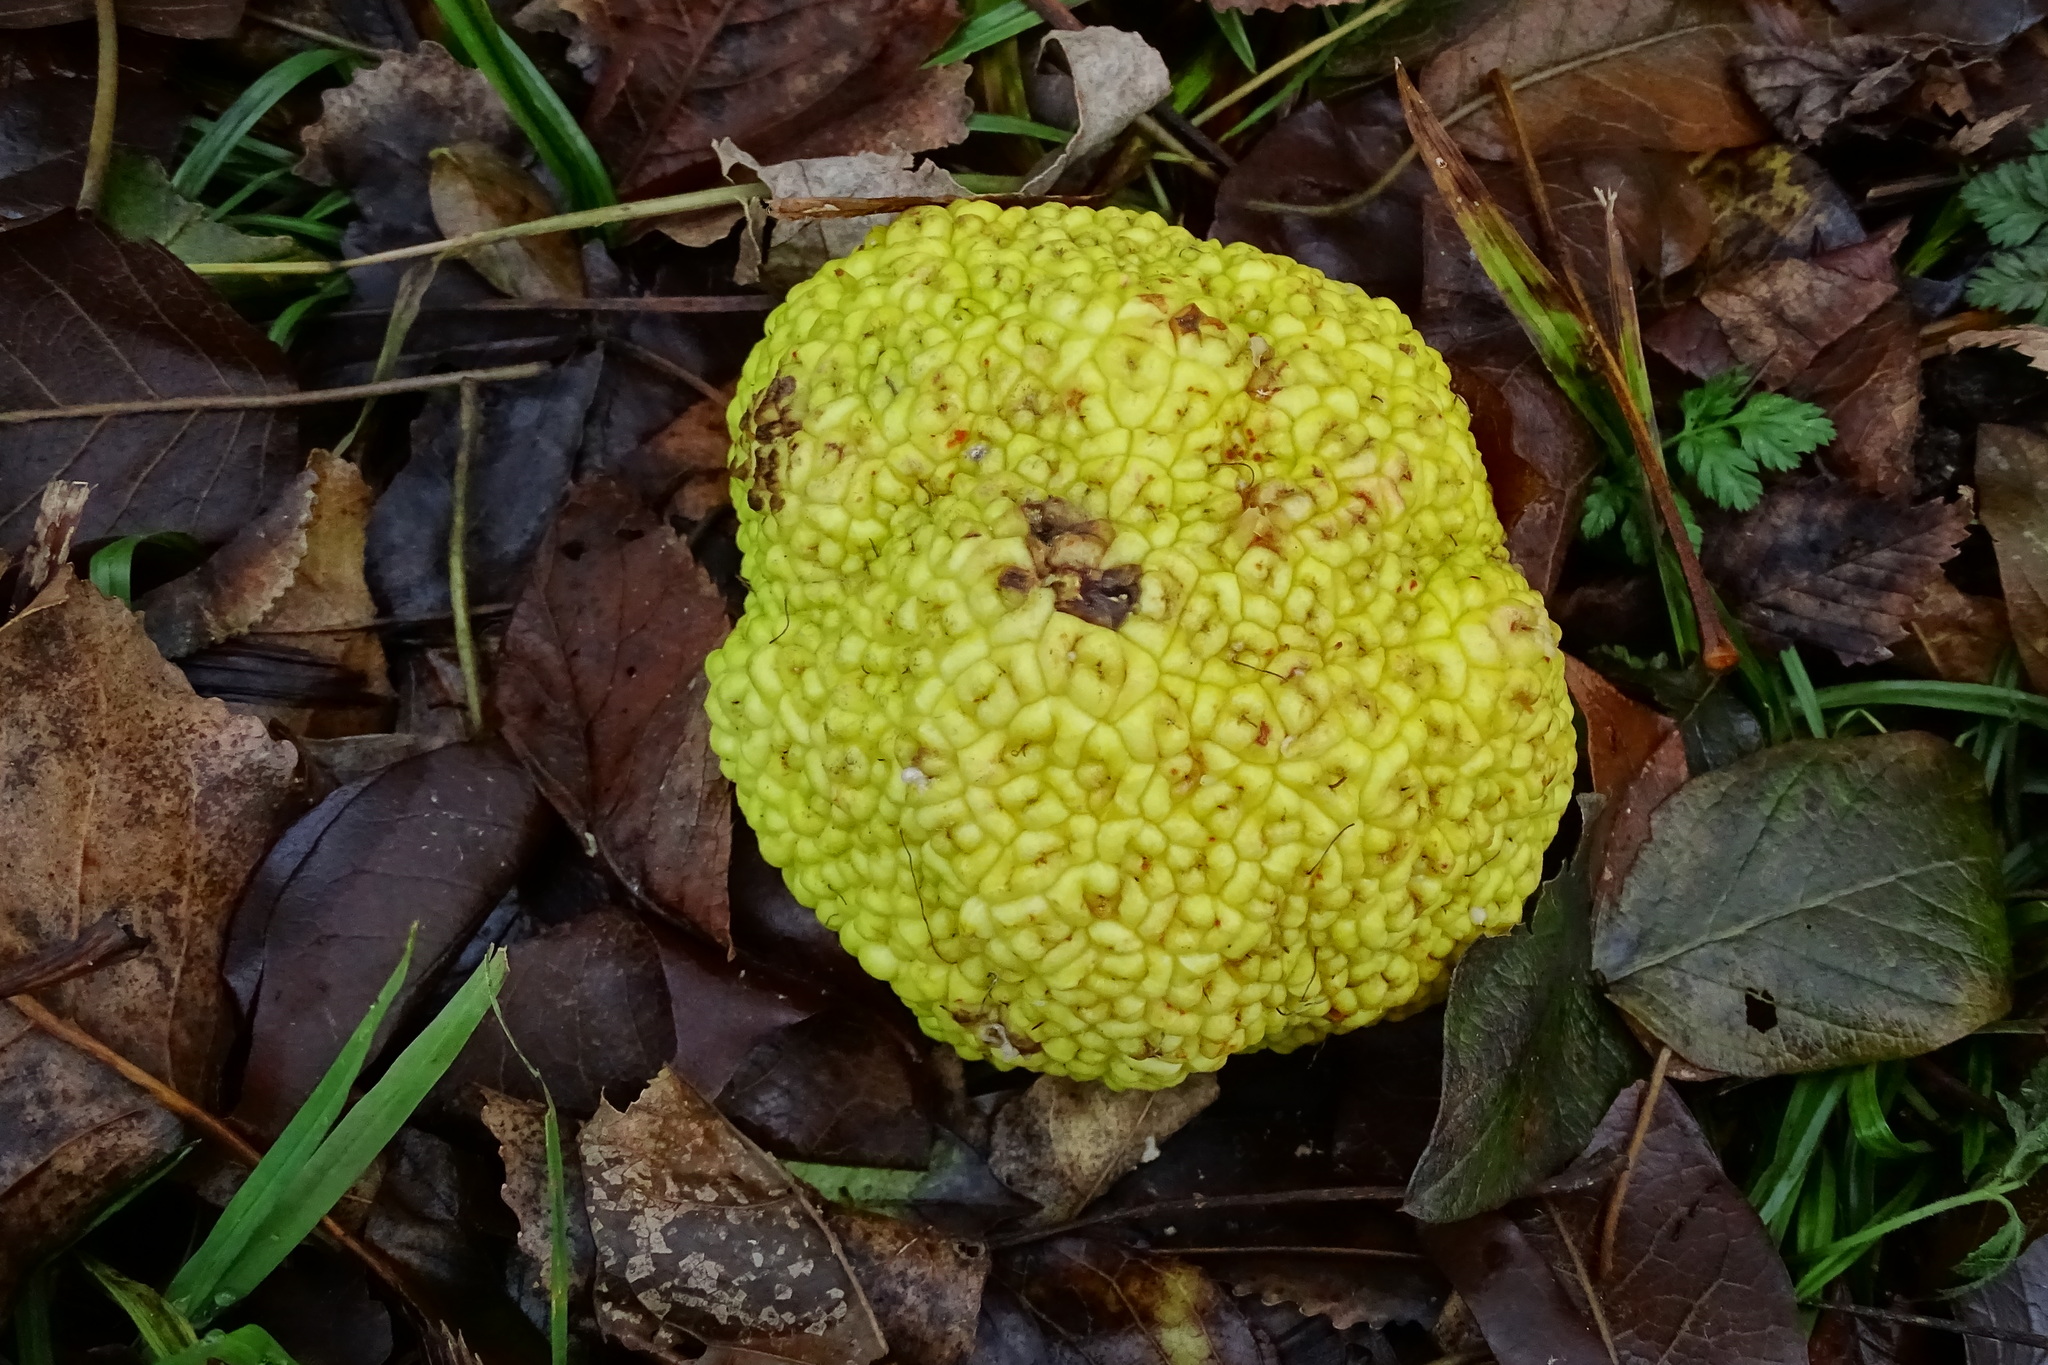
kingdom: Plantae
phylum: Tracheophyta
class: Magnoliopsida
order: Rosales
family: Moraceae
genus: Maclura
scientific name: Maclura pomifera
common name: Osage-orange
